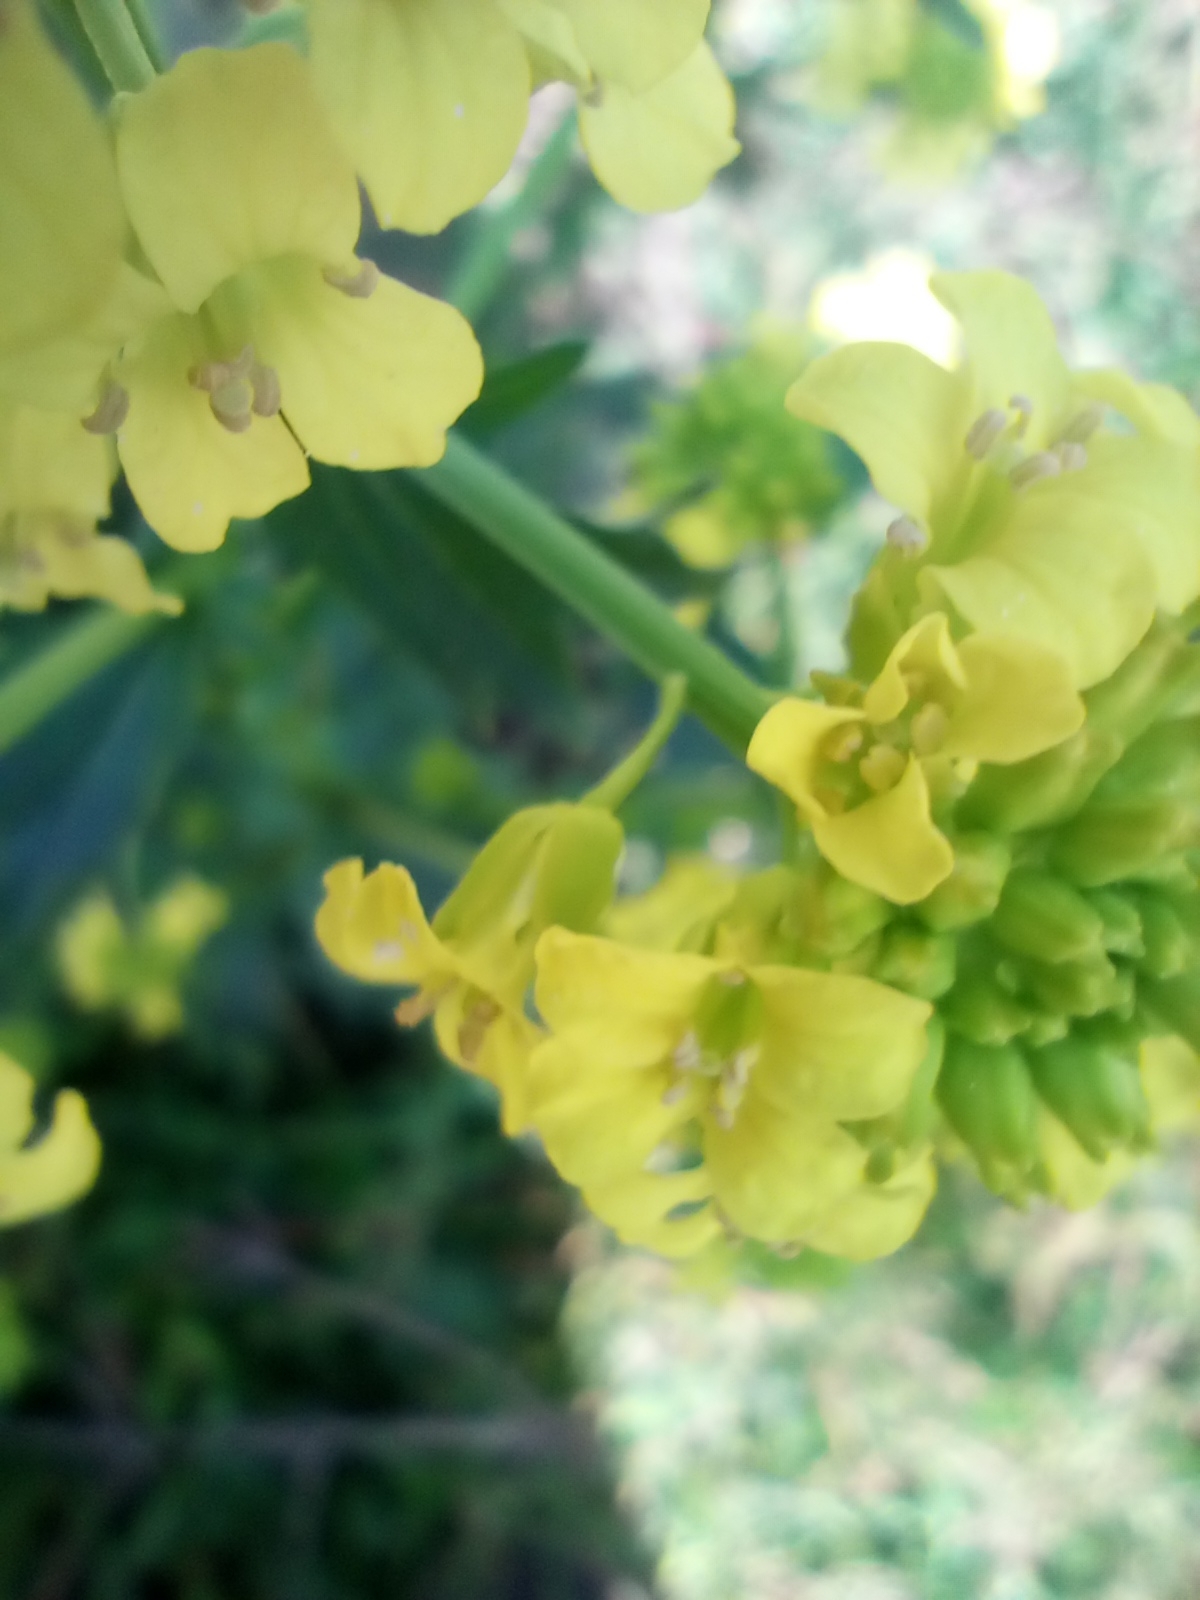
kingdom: Plantae
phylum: Tracheophyta
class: Magnoliopsida
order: Brassicales
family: Brassicaceae
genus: Barbarea
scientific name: Barbarea vulgaris
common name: Cressy-greens
